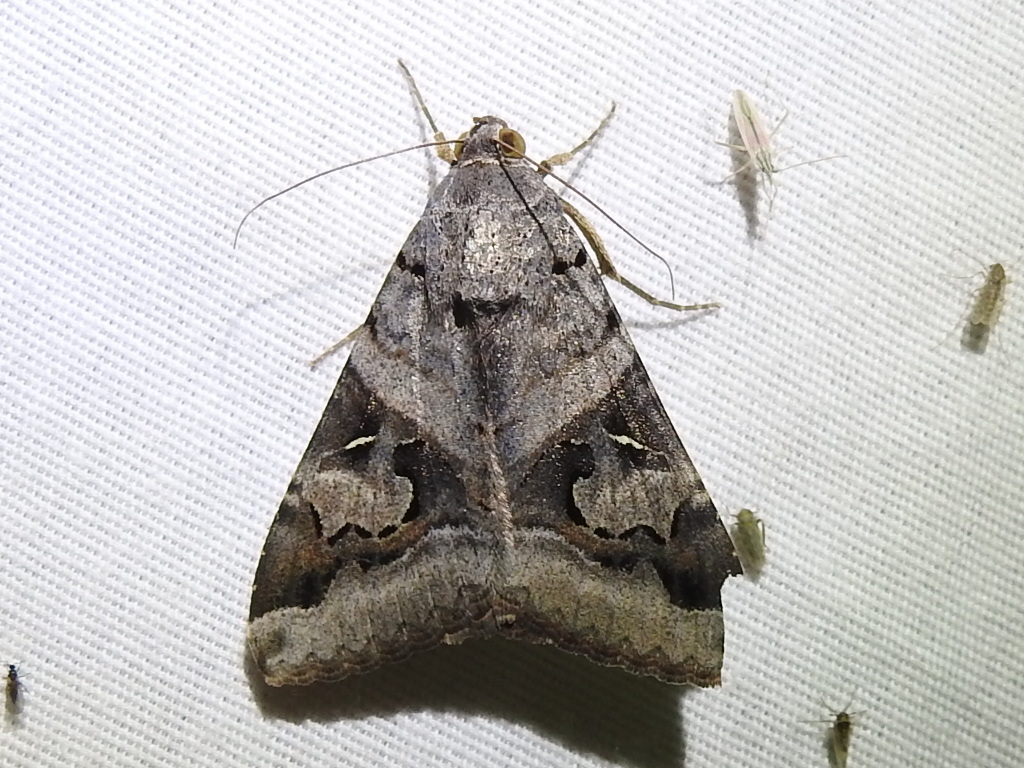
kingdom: Animalia
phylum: Arthropoda
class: Insecta
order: Lepidoptera
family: Erebidae
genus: Melipotis
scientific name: Melipotis indomita
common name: Moth
